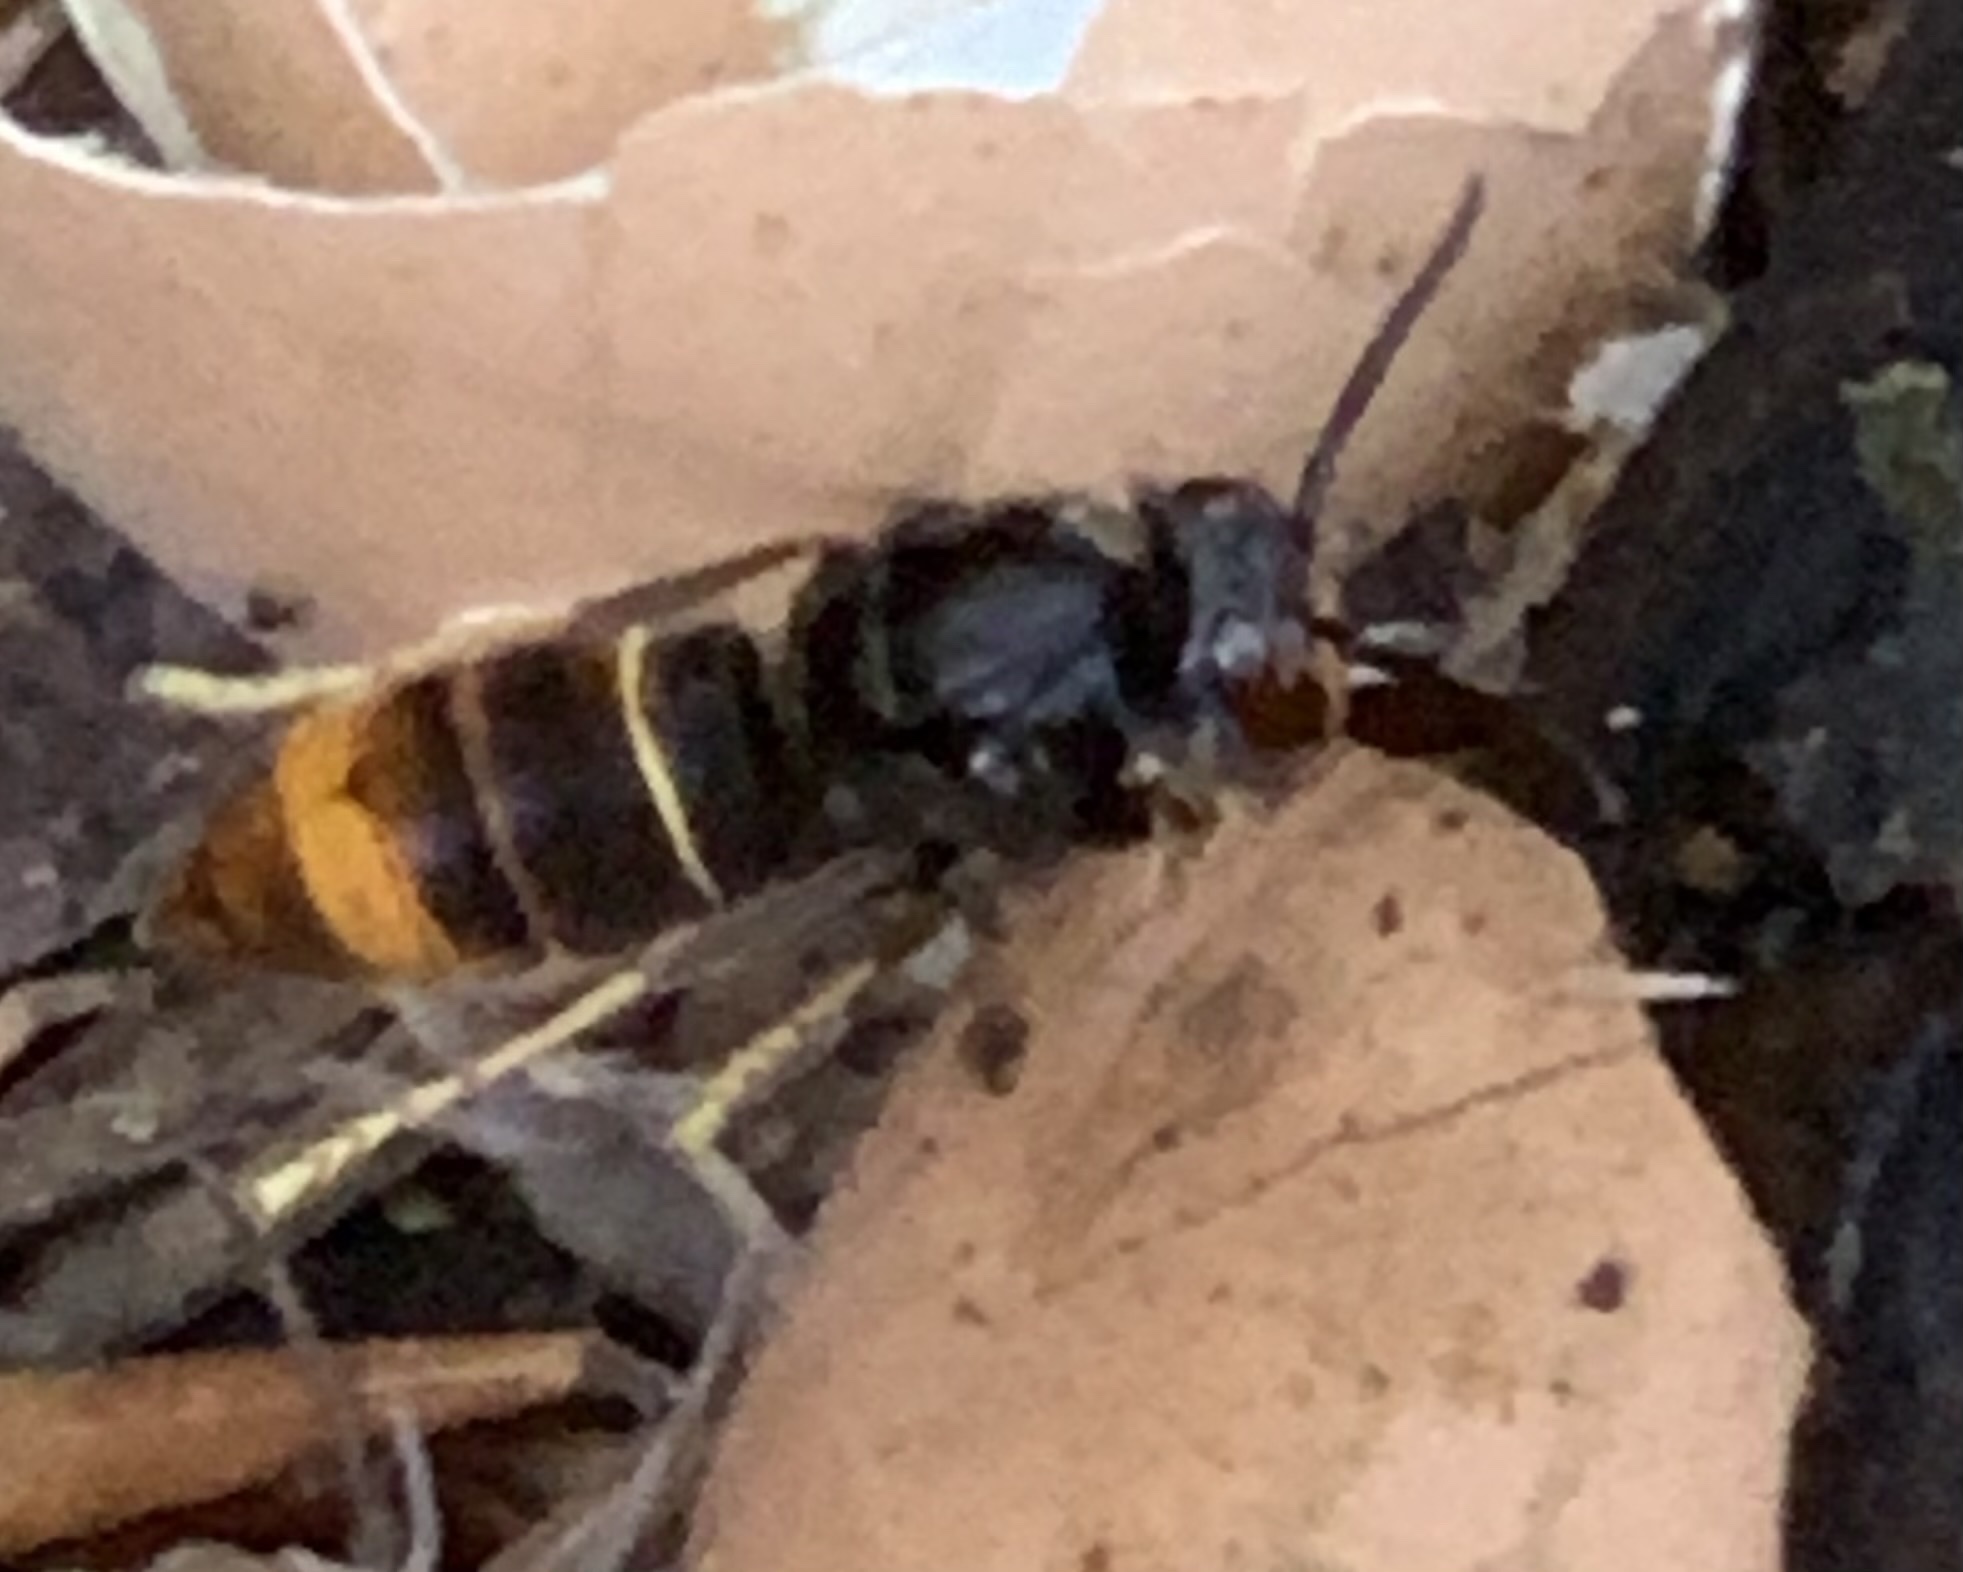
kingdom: Animalia
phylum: Arthropoda
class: Insecta
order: Hymenoptera
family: Vespidae
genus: Vespa
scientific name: Vespa velutina
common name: Asian hornet
